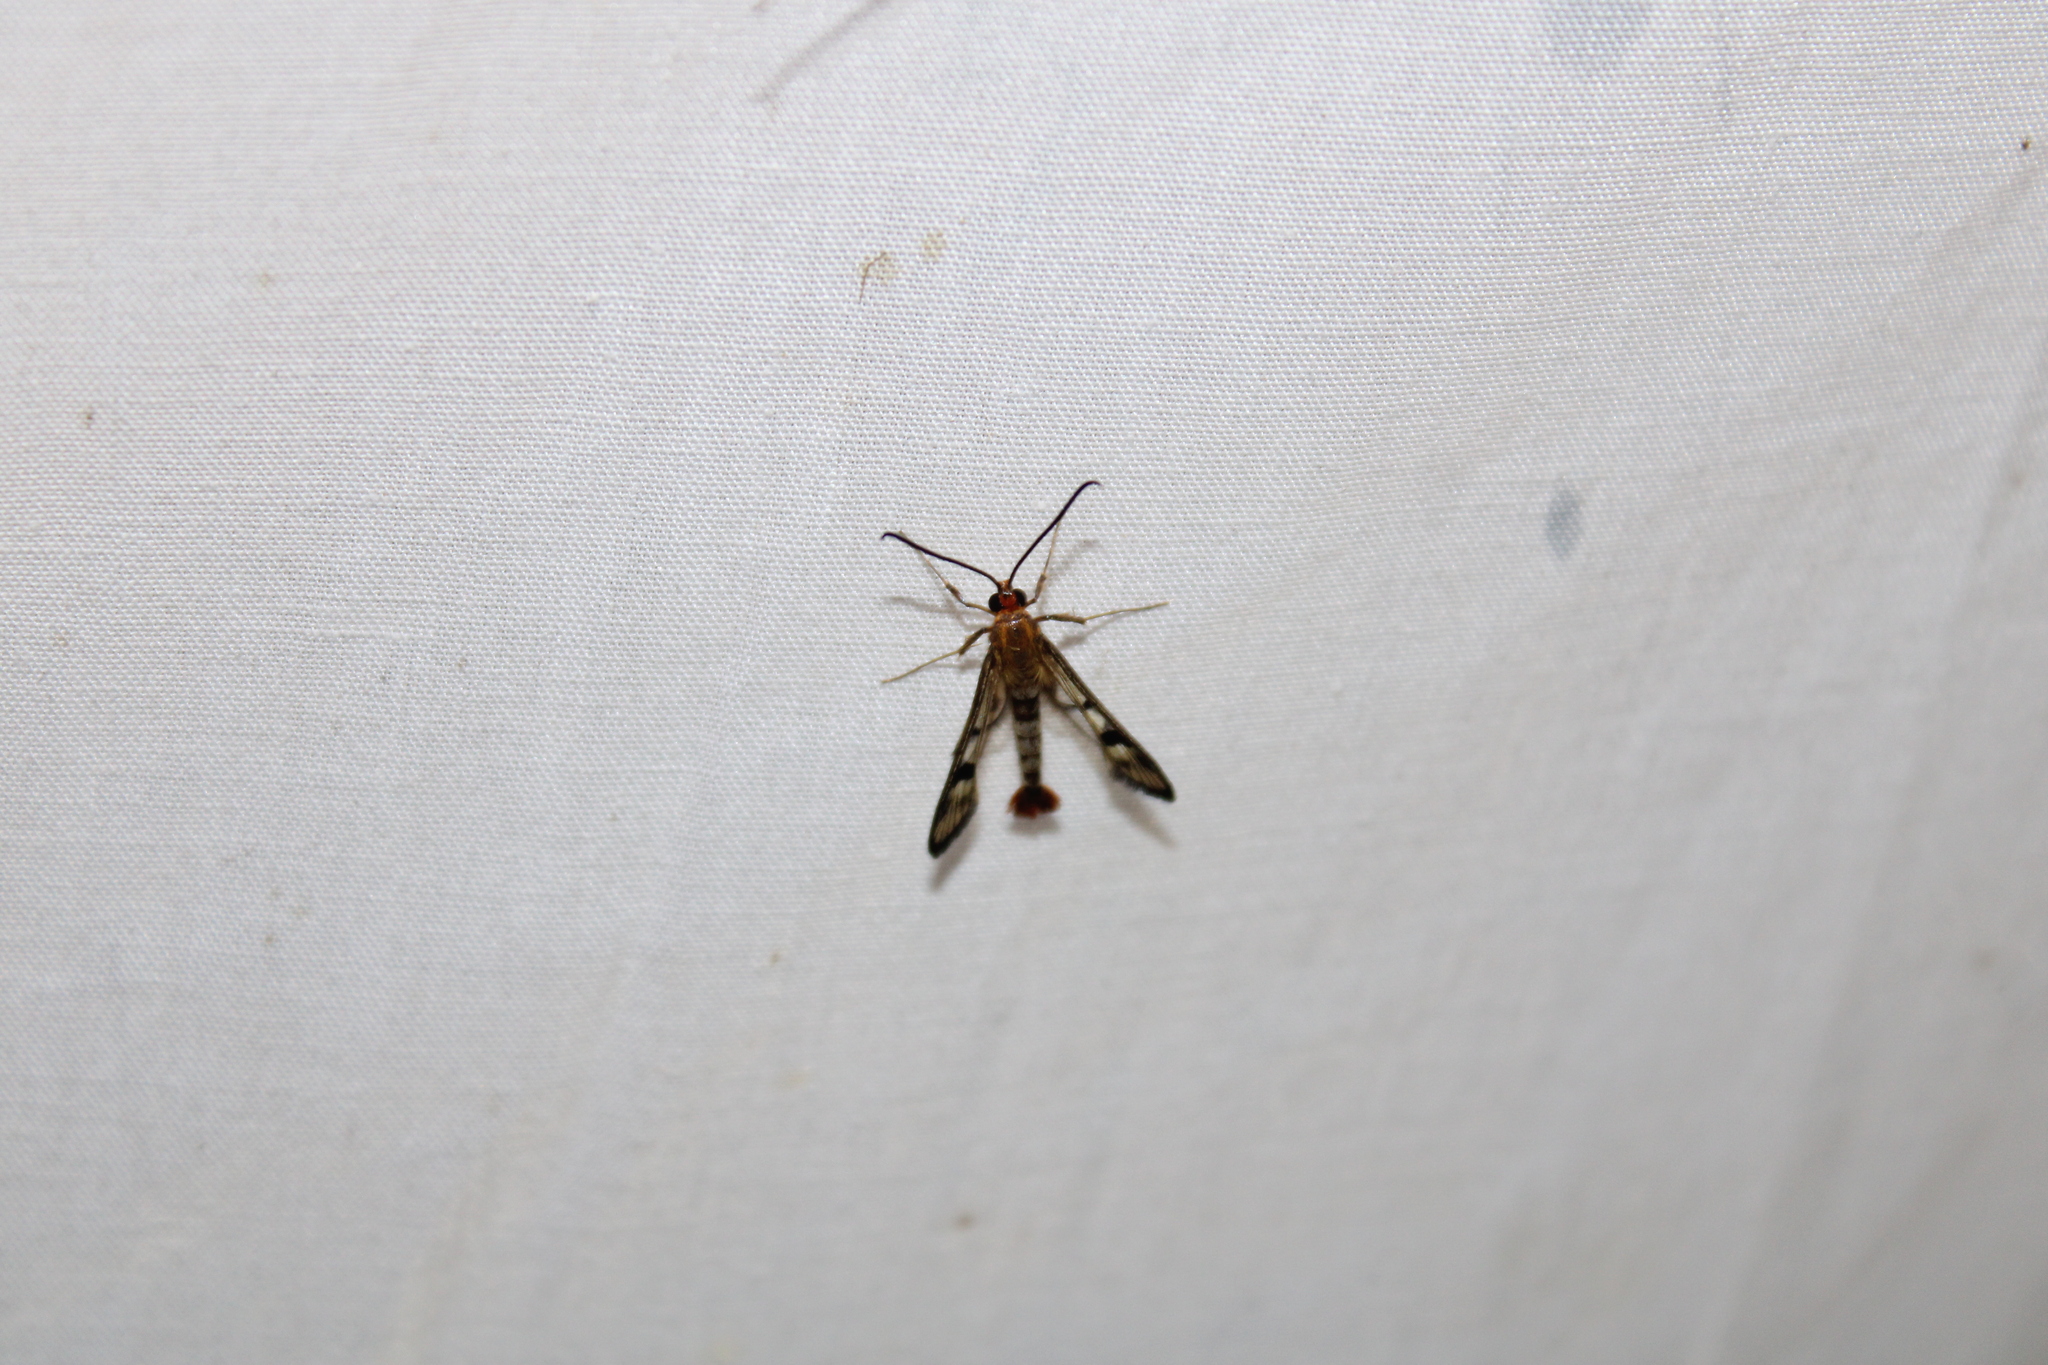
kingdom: Animalia
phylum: Arthropoda
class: Insecta
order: Lepidoptera
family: Sesiidae
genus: Synanthedon
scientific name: Synanthedon acerni
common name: Maple callus borer moth
